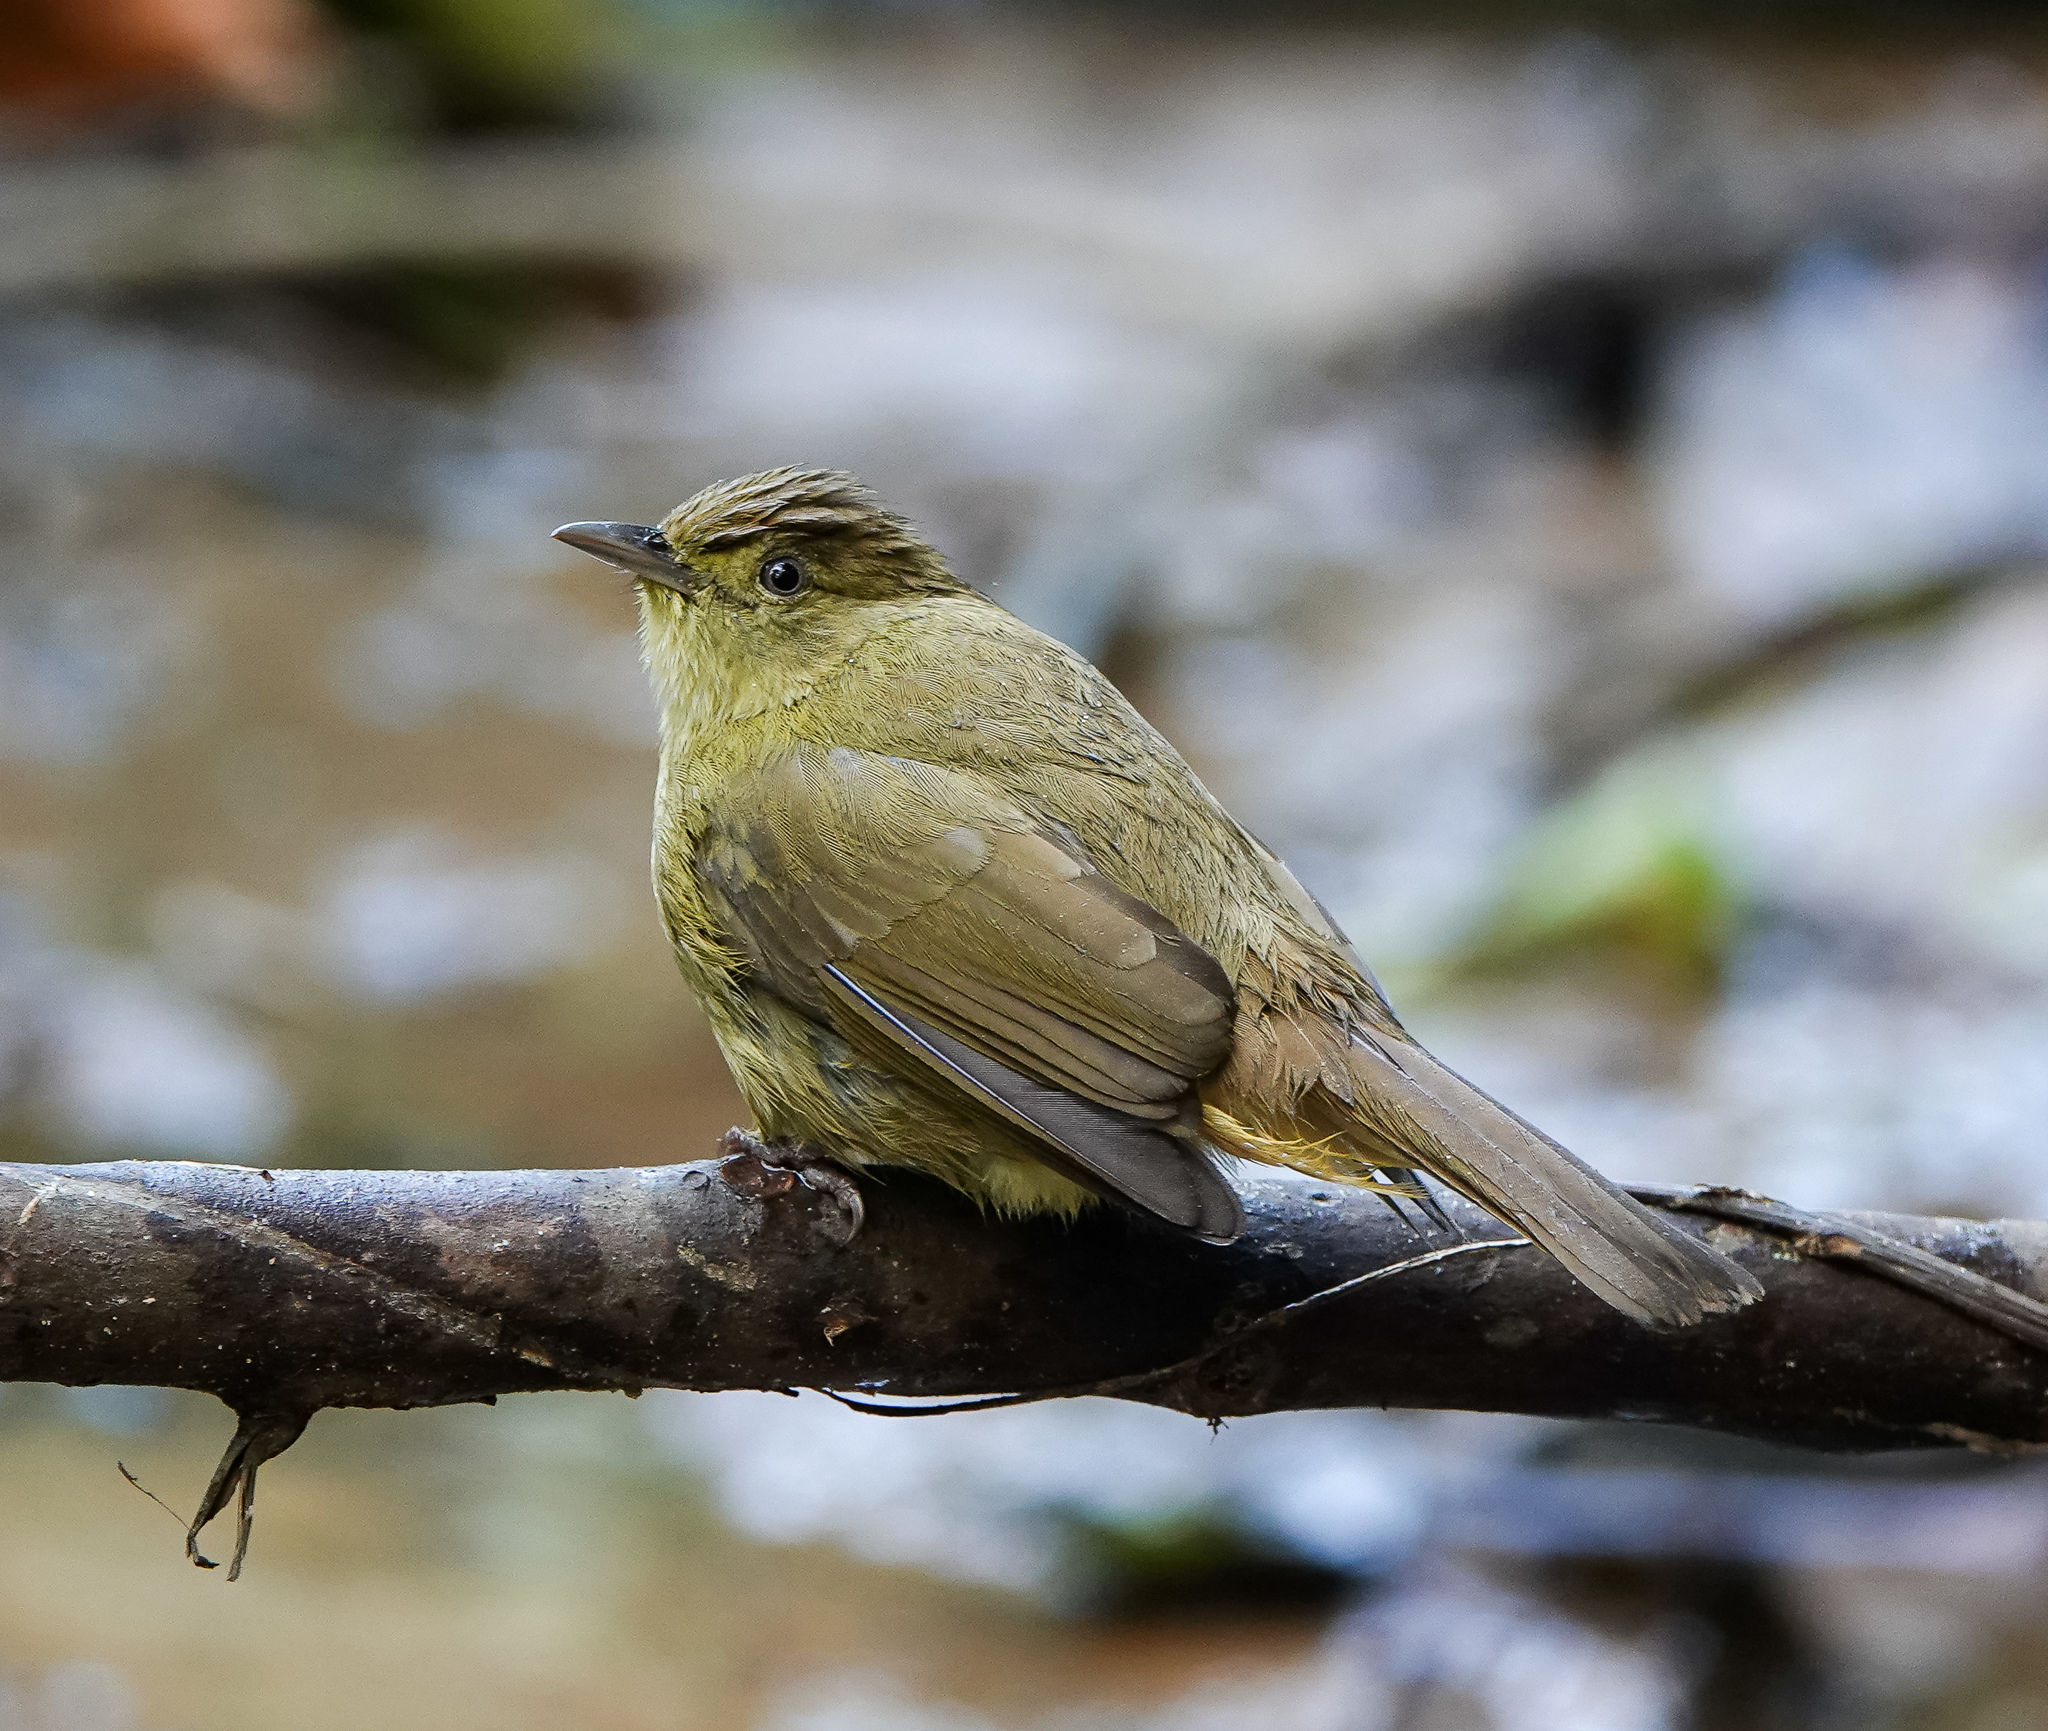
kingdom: Animalia
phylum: Chordata
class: Aves
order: Passeriformes
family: Pycnonotidae
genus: Iole
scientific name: Iole virescens
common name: Olive bulbul
